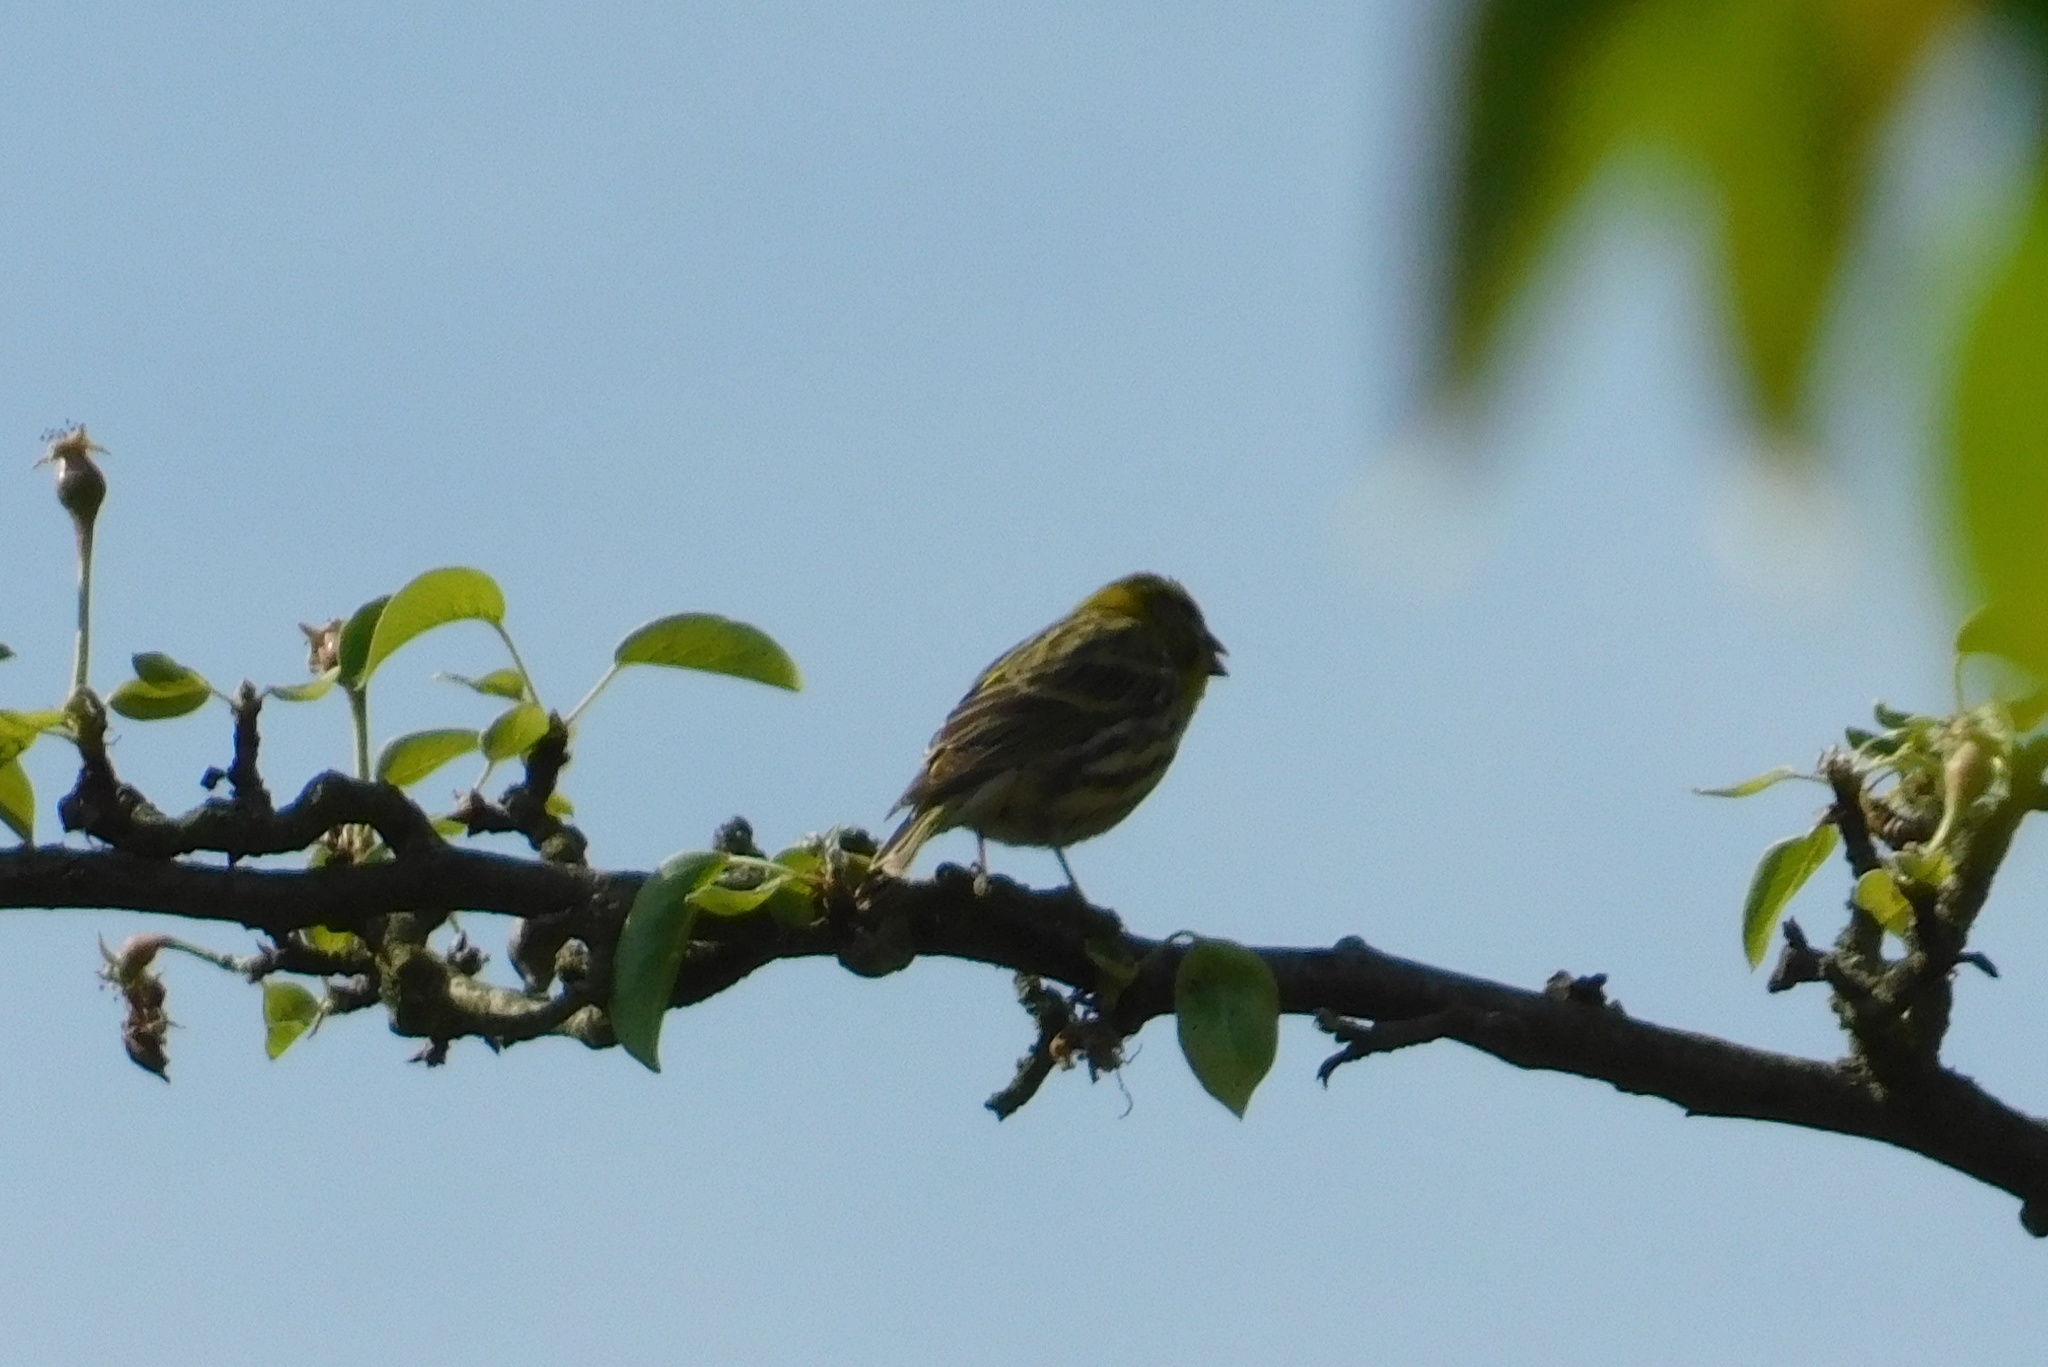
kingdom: Animalia
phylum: Chordata
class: Aves
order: Passeriformes
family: Fringillidae
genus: Serinus
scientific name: Serinus serinus
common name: European serin
